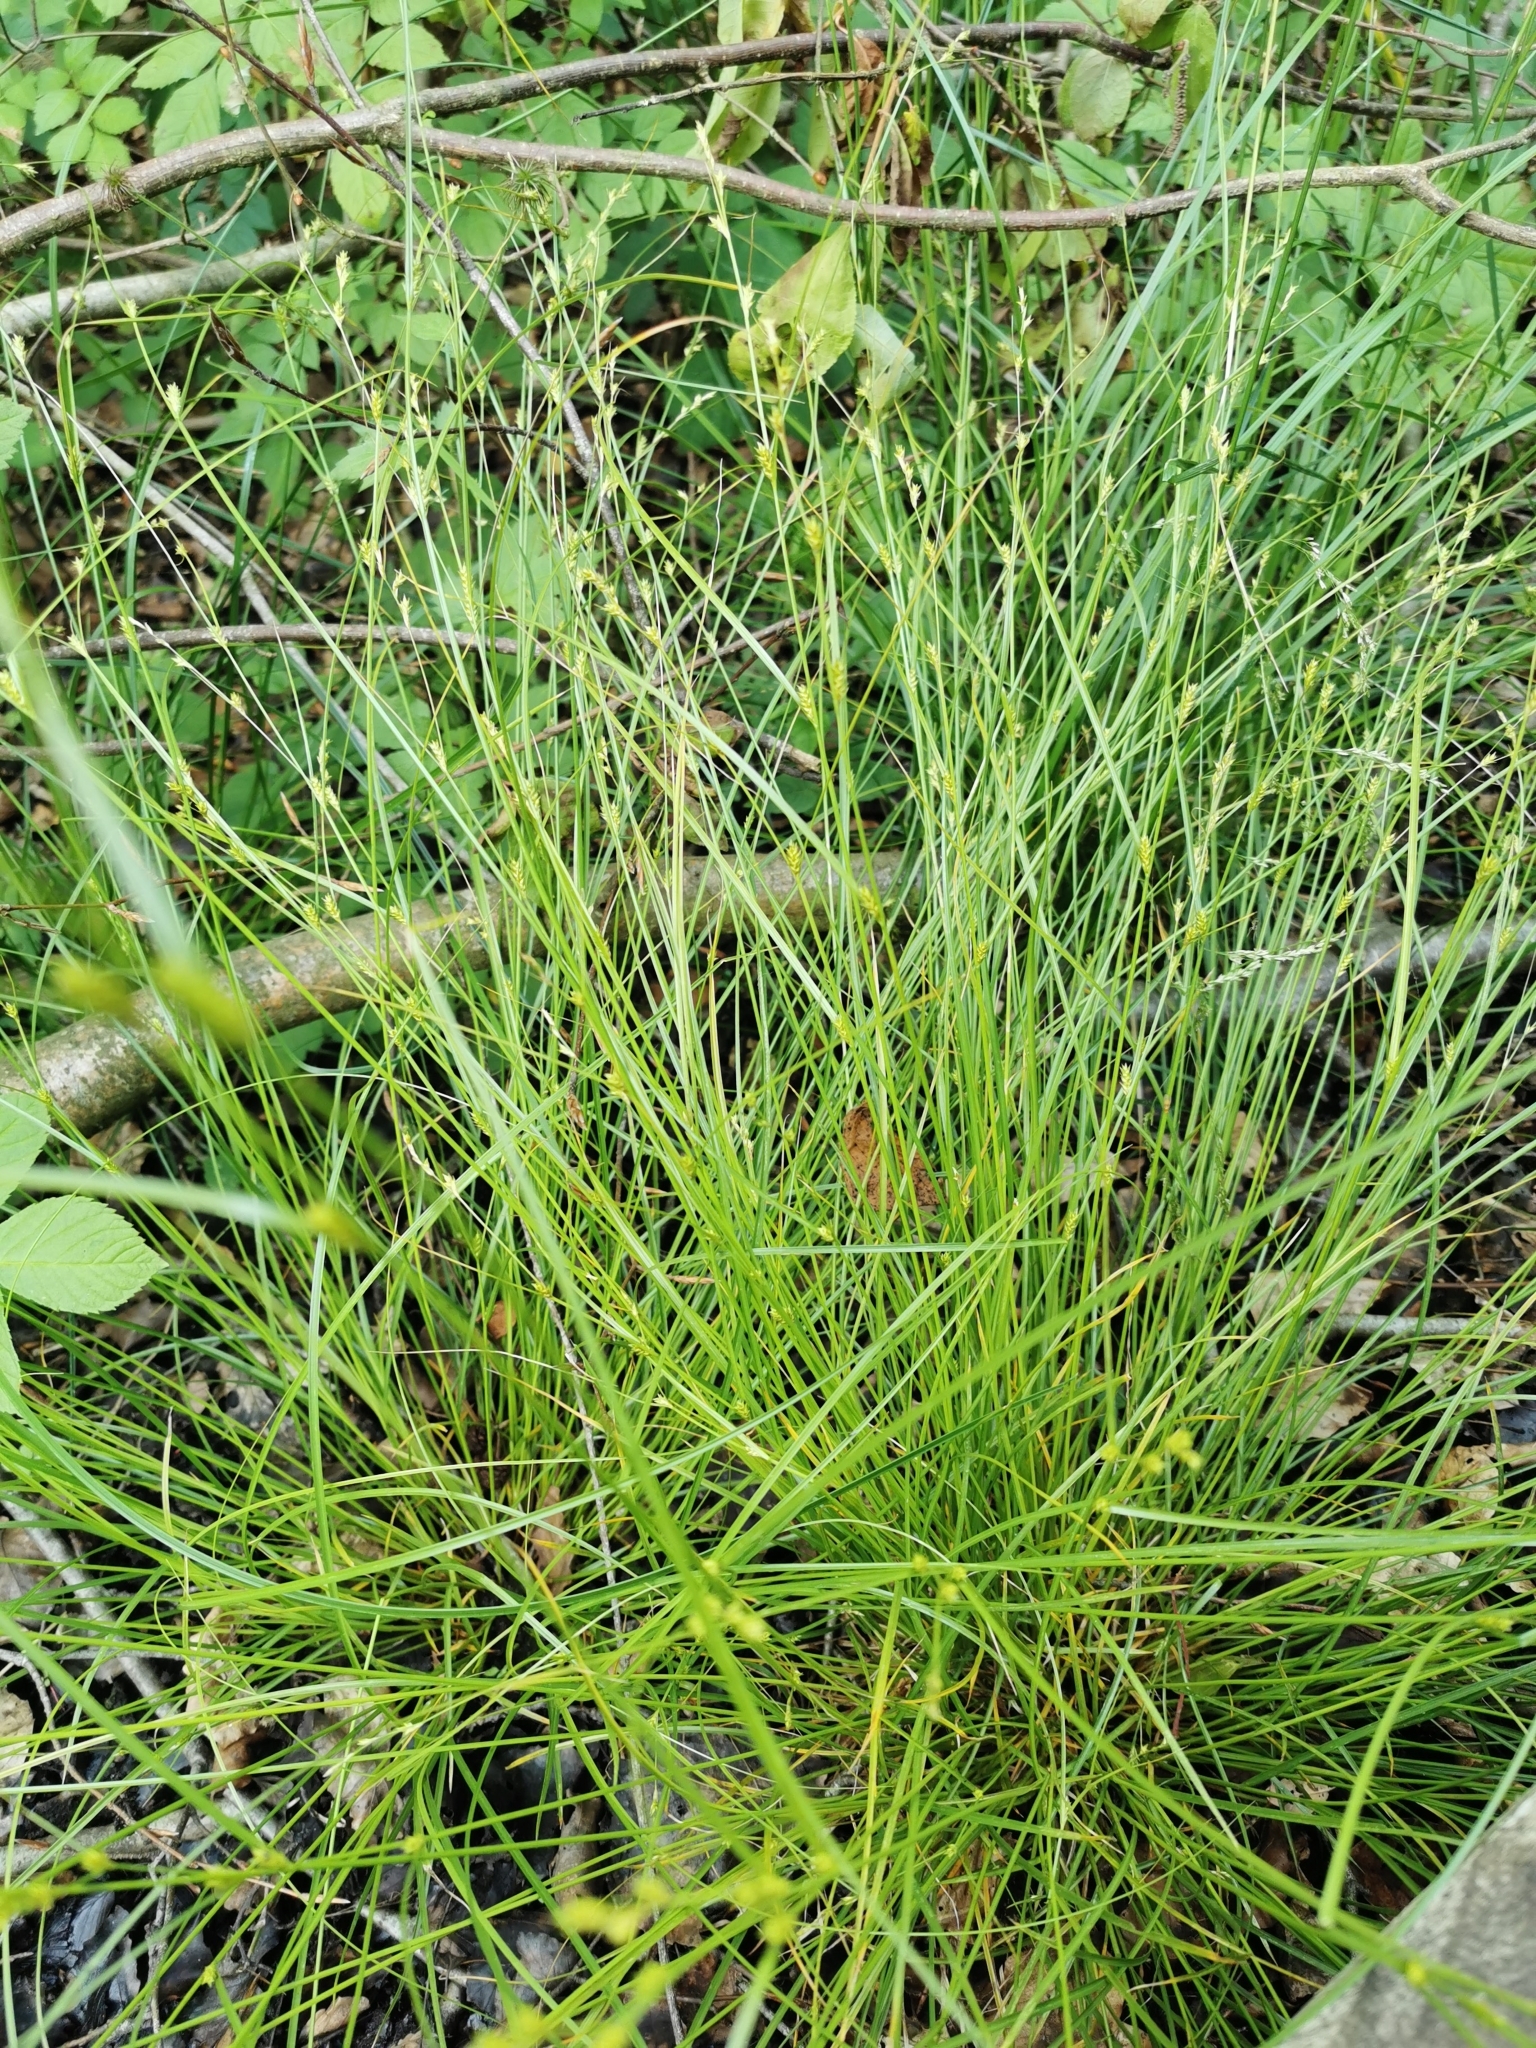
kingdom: Plantae
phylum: Tracheophyta
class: Liliopsida
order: Poales
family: Cyperaceae
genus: Carex
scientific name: Carex remota
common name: Remote sedge
